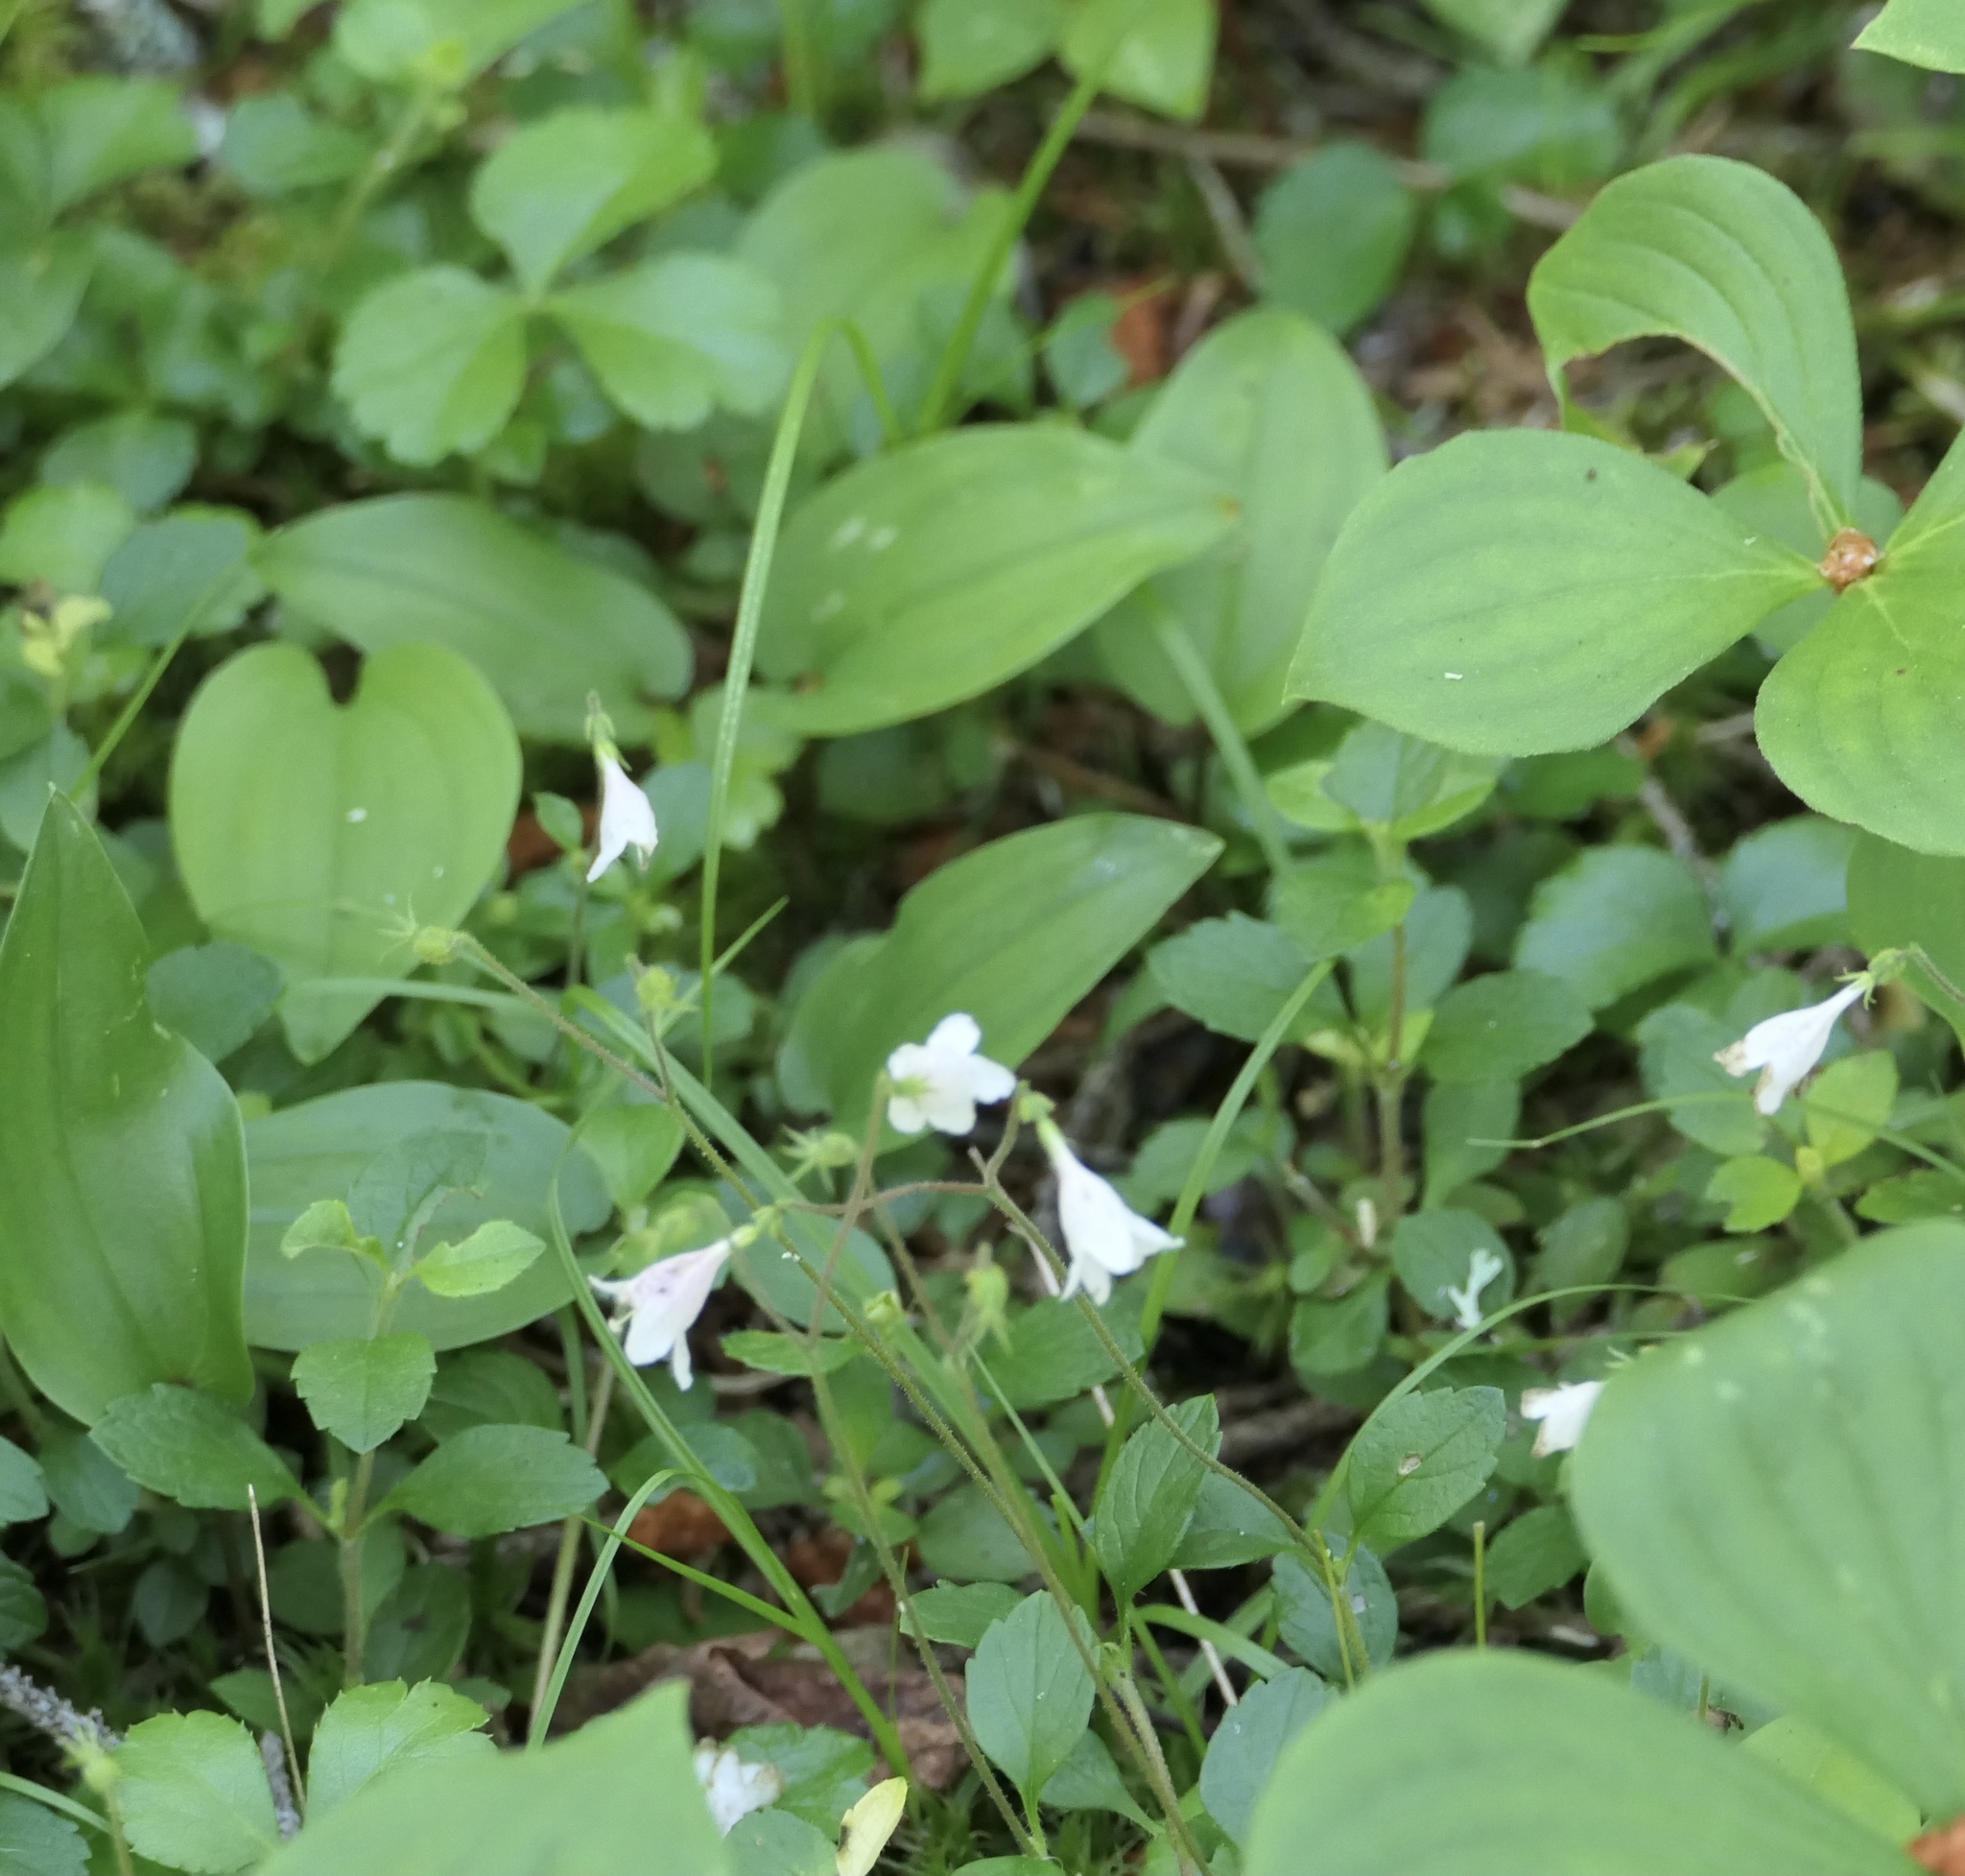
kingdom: Plantae
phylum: Tracheophyta
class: Magnoliopsida
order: Dipsacales
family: Caprifoliaceae
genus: Linnaea
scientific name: Linnaea borealis
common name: Twinflower
